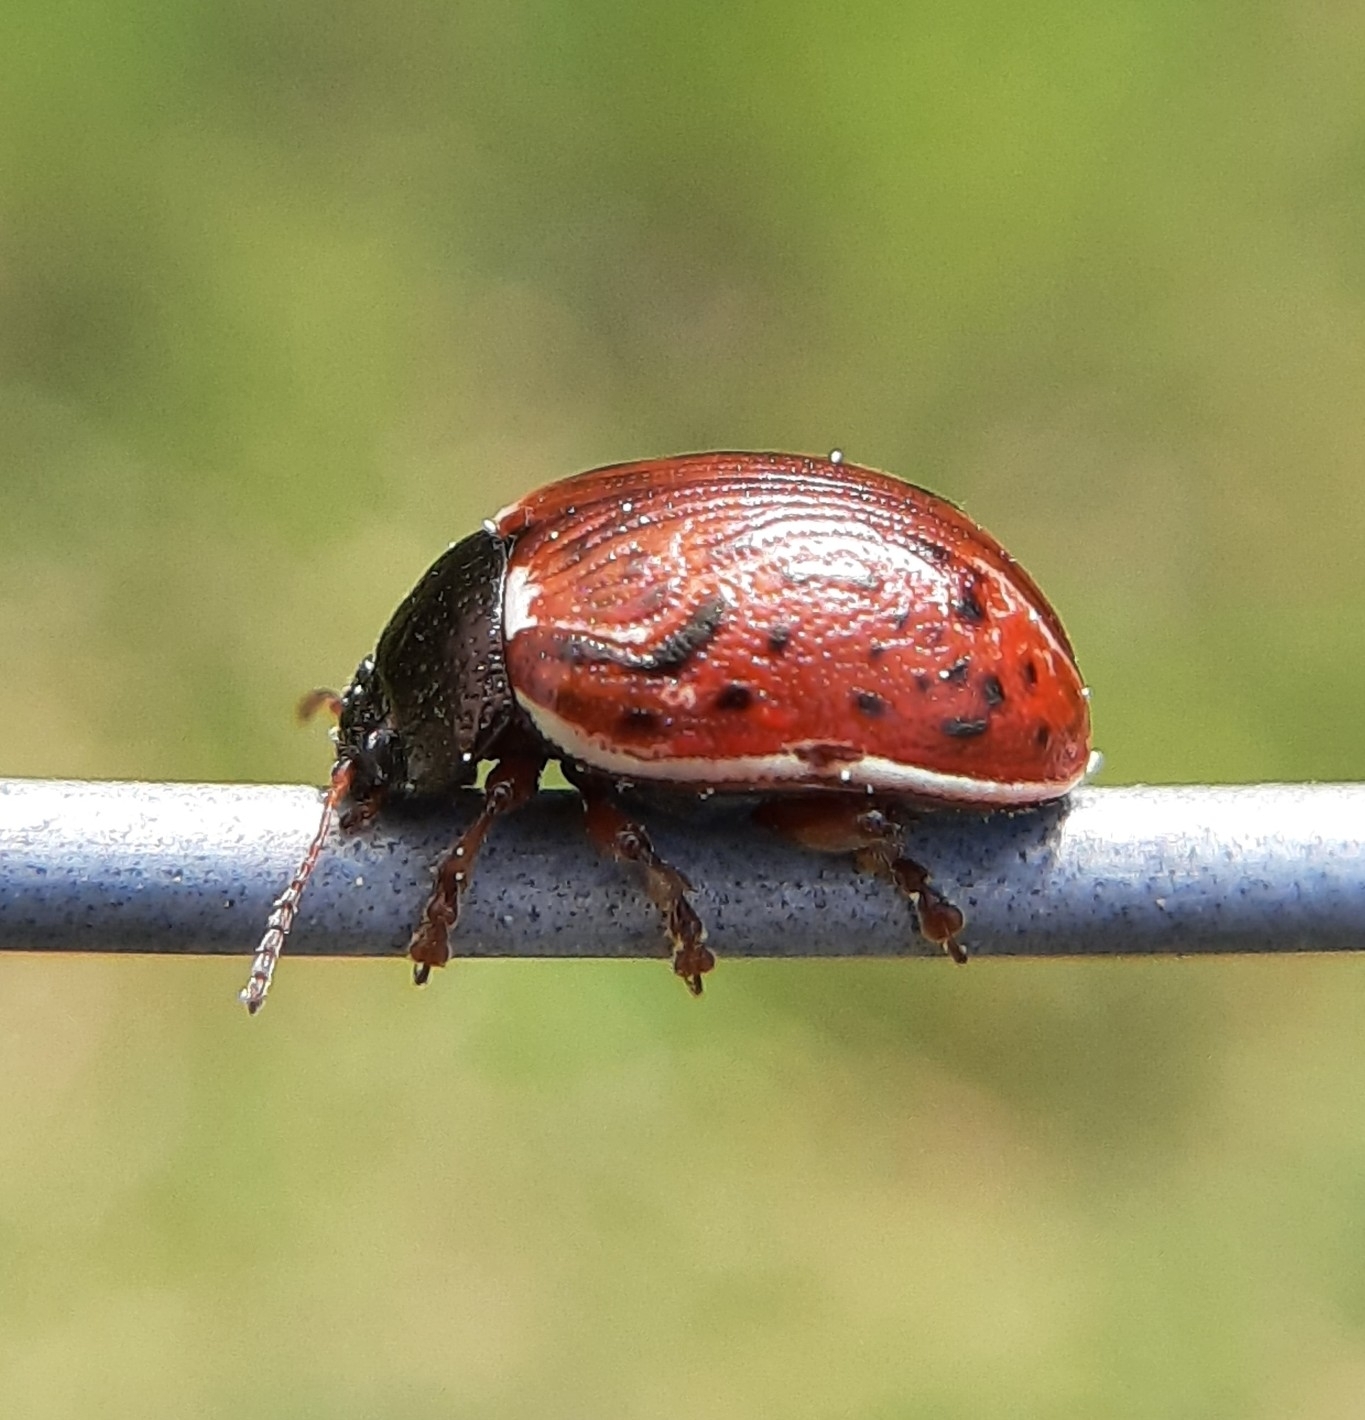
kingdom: Animalia
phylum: Arthropoda
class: Insecta
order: Coleoptera
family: Chrysomelidae
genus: Calligrapha
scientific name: Calligrapha alni
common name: Russet alder leaf beetle
